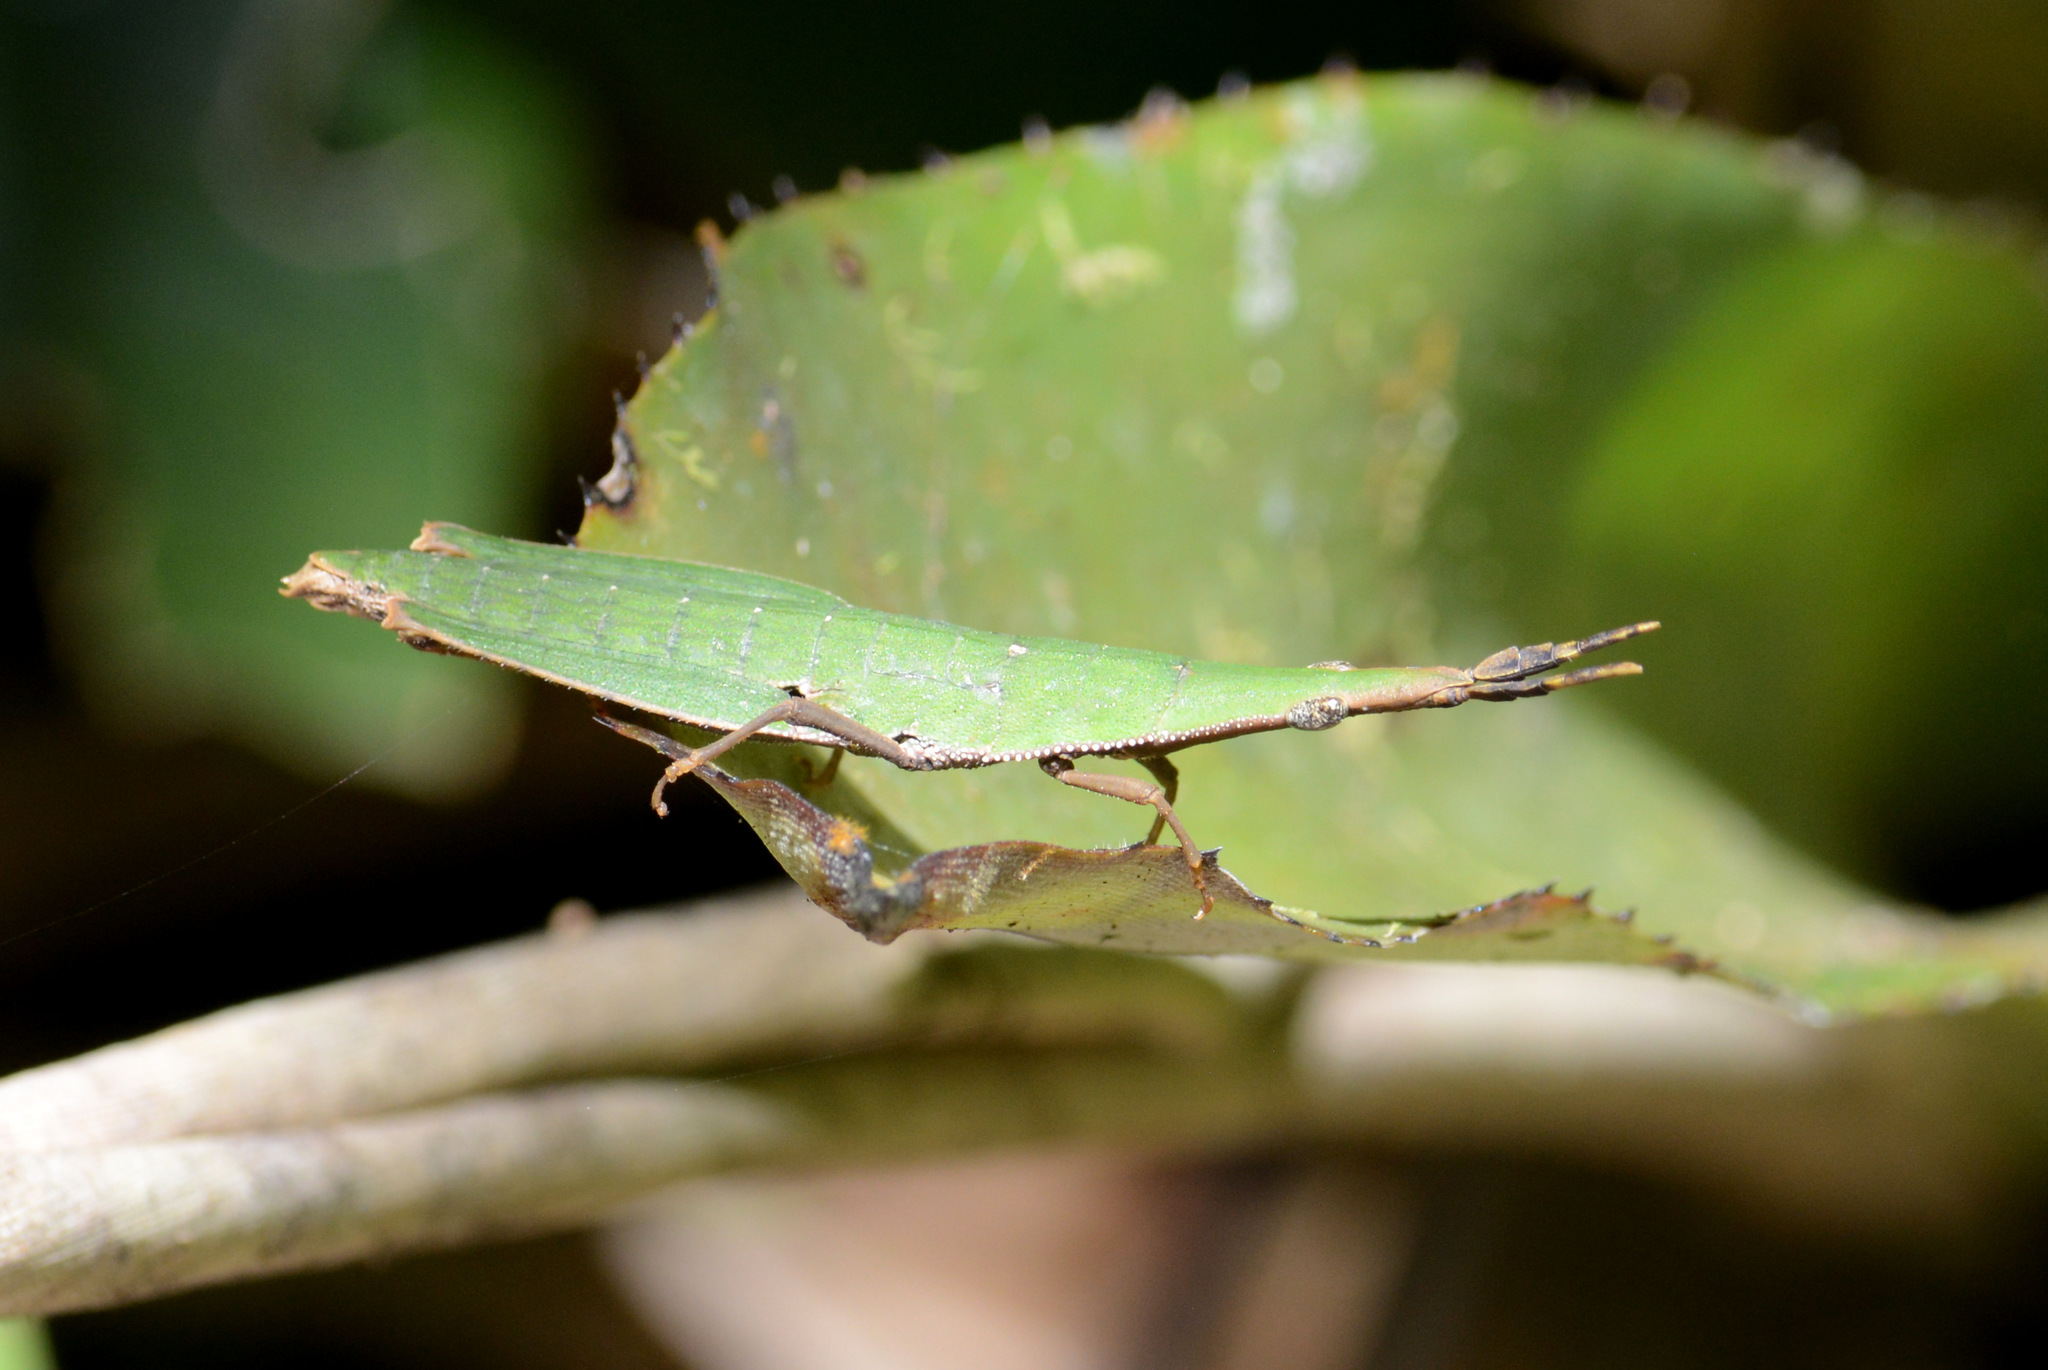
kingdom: Animalia
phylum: Arthropoda
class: Insecta
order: Orthoptera
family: Pyrgomorphidae
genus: Omura
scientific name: Omura congrua
